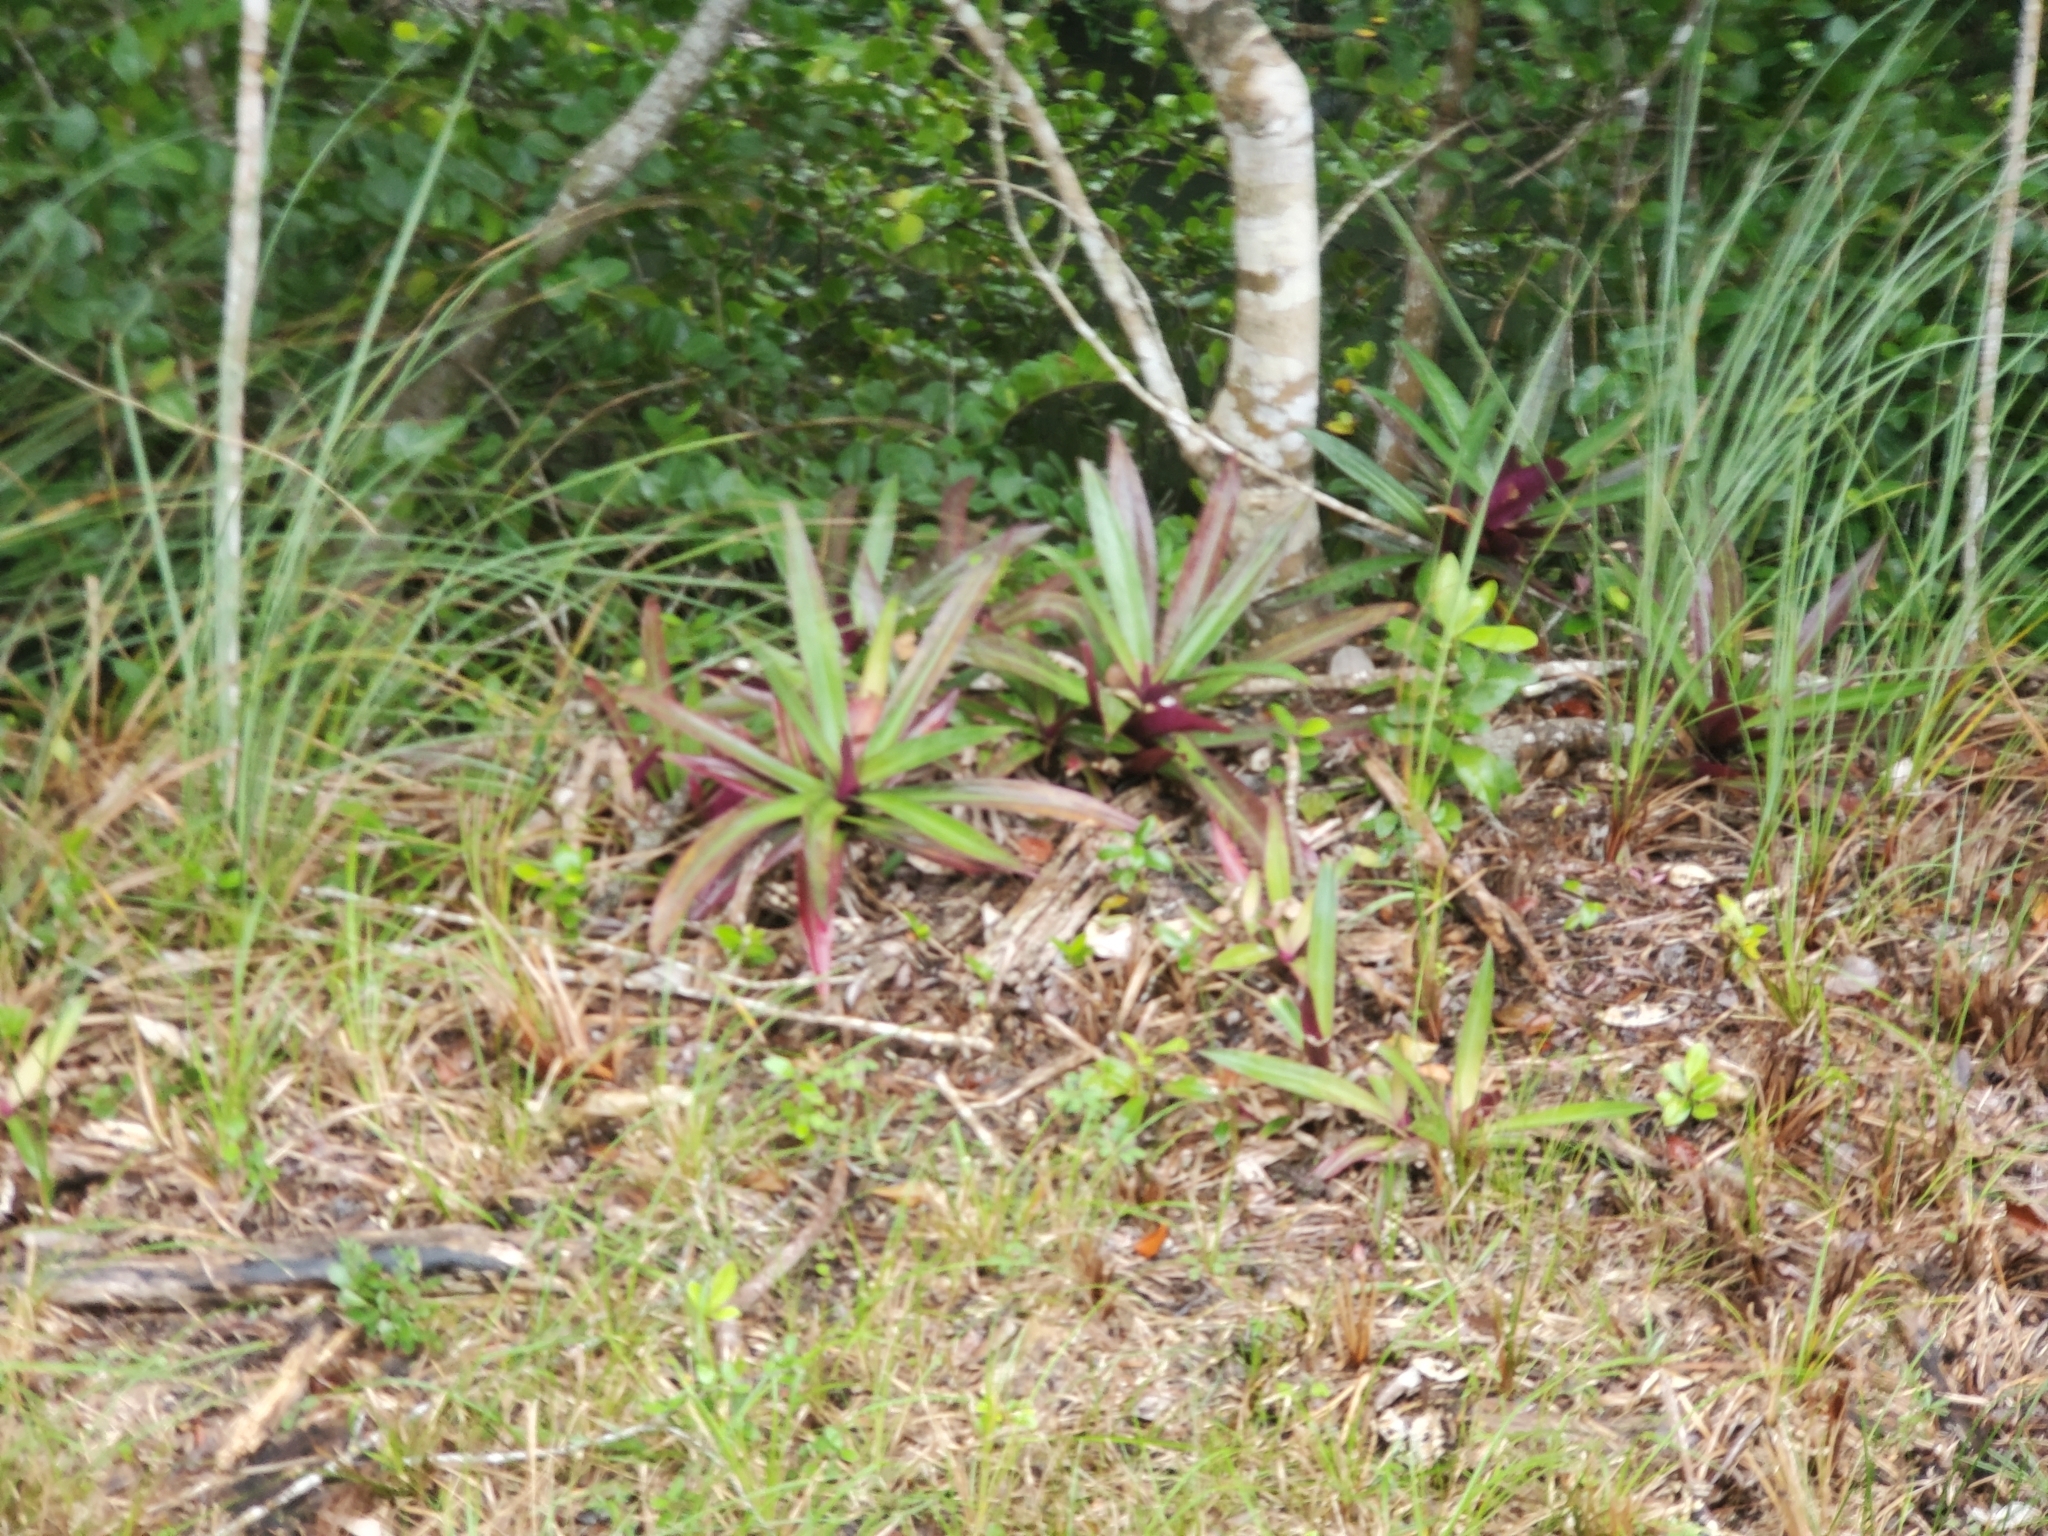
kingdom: Plantae
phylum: Tracheophyta
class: Liliopsida
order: Commelinales
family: Commelinaceae
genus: Tradescantia
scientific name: Tradescantia spathacea
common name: Boatlily
